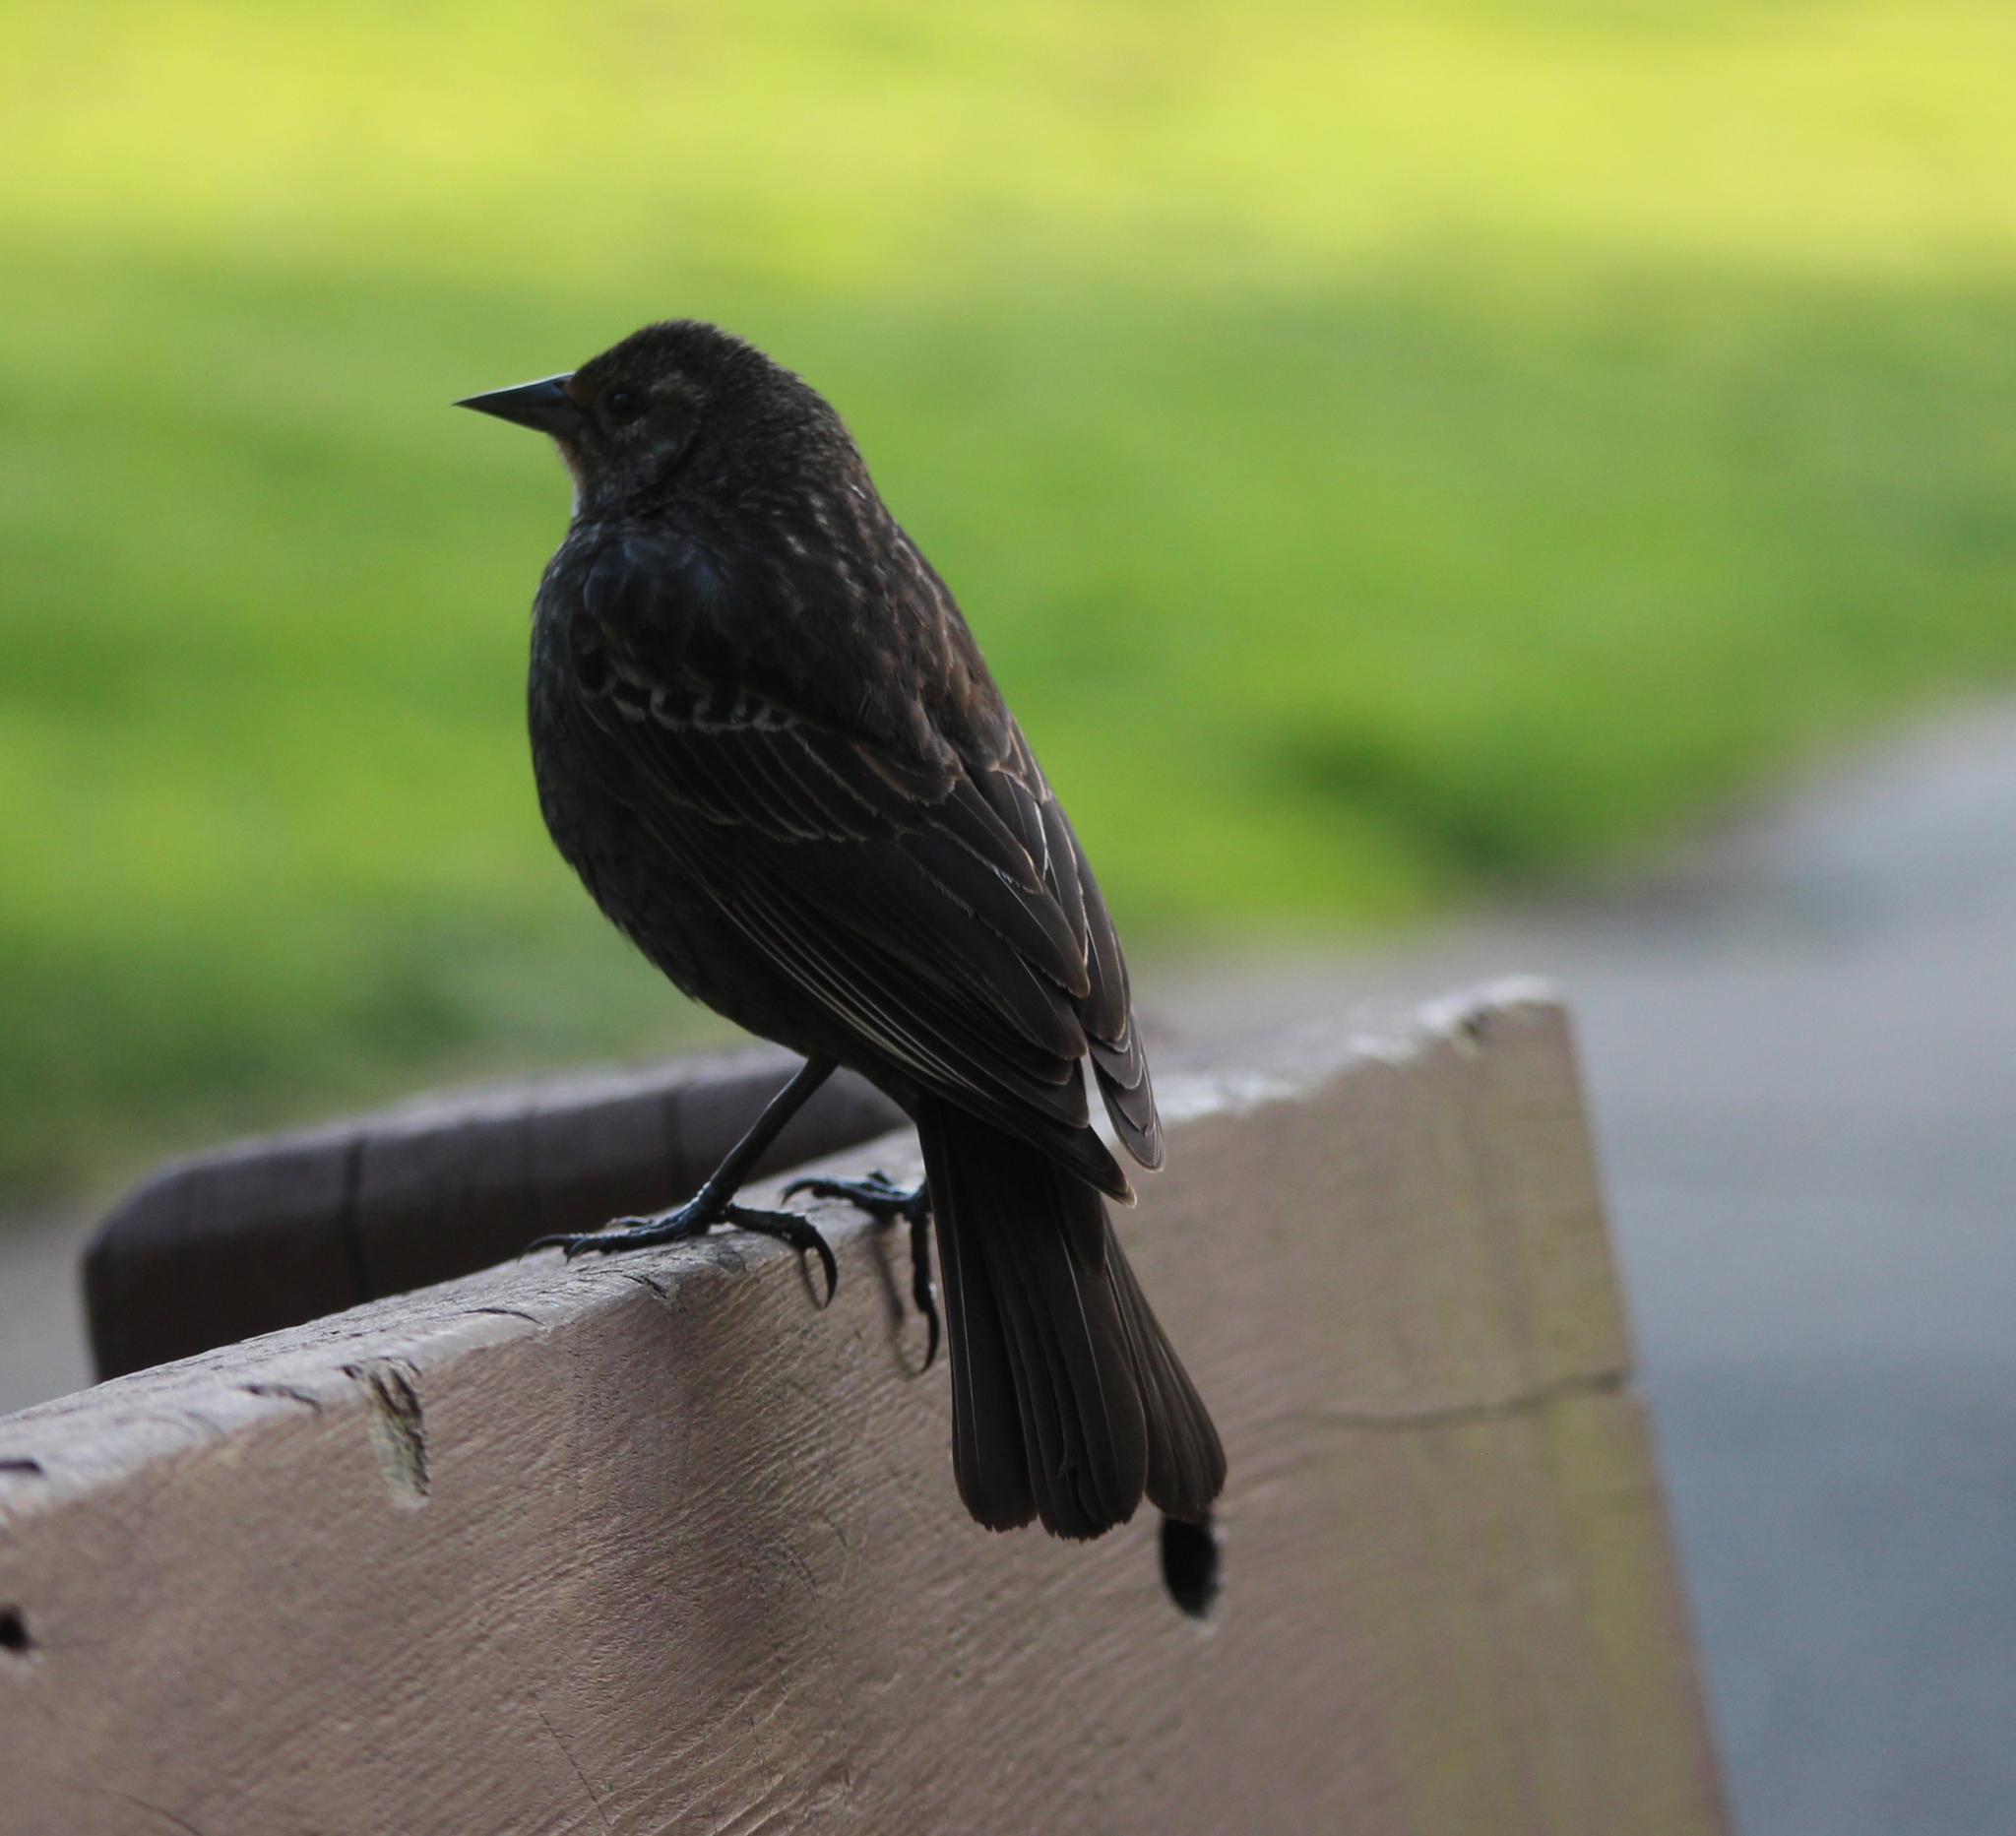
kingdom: Animalia
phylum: Chordata
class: Aves
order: Passeriformes
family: Icteridae
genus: Agelaius
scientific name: Agelaius phoeniceus
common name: Red-winged blackbird
